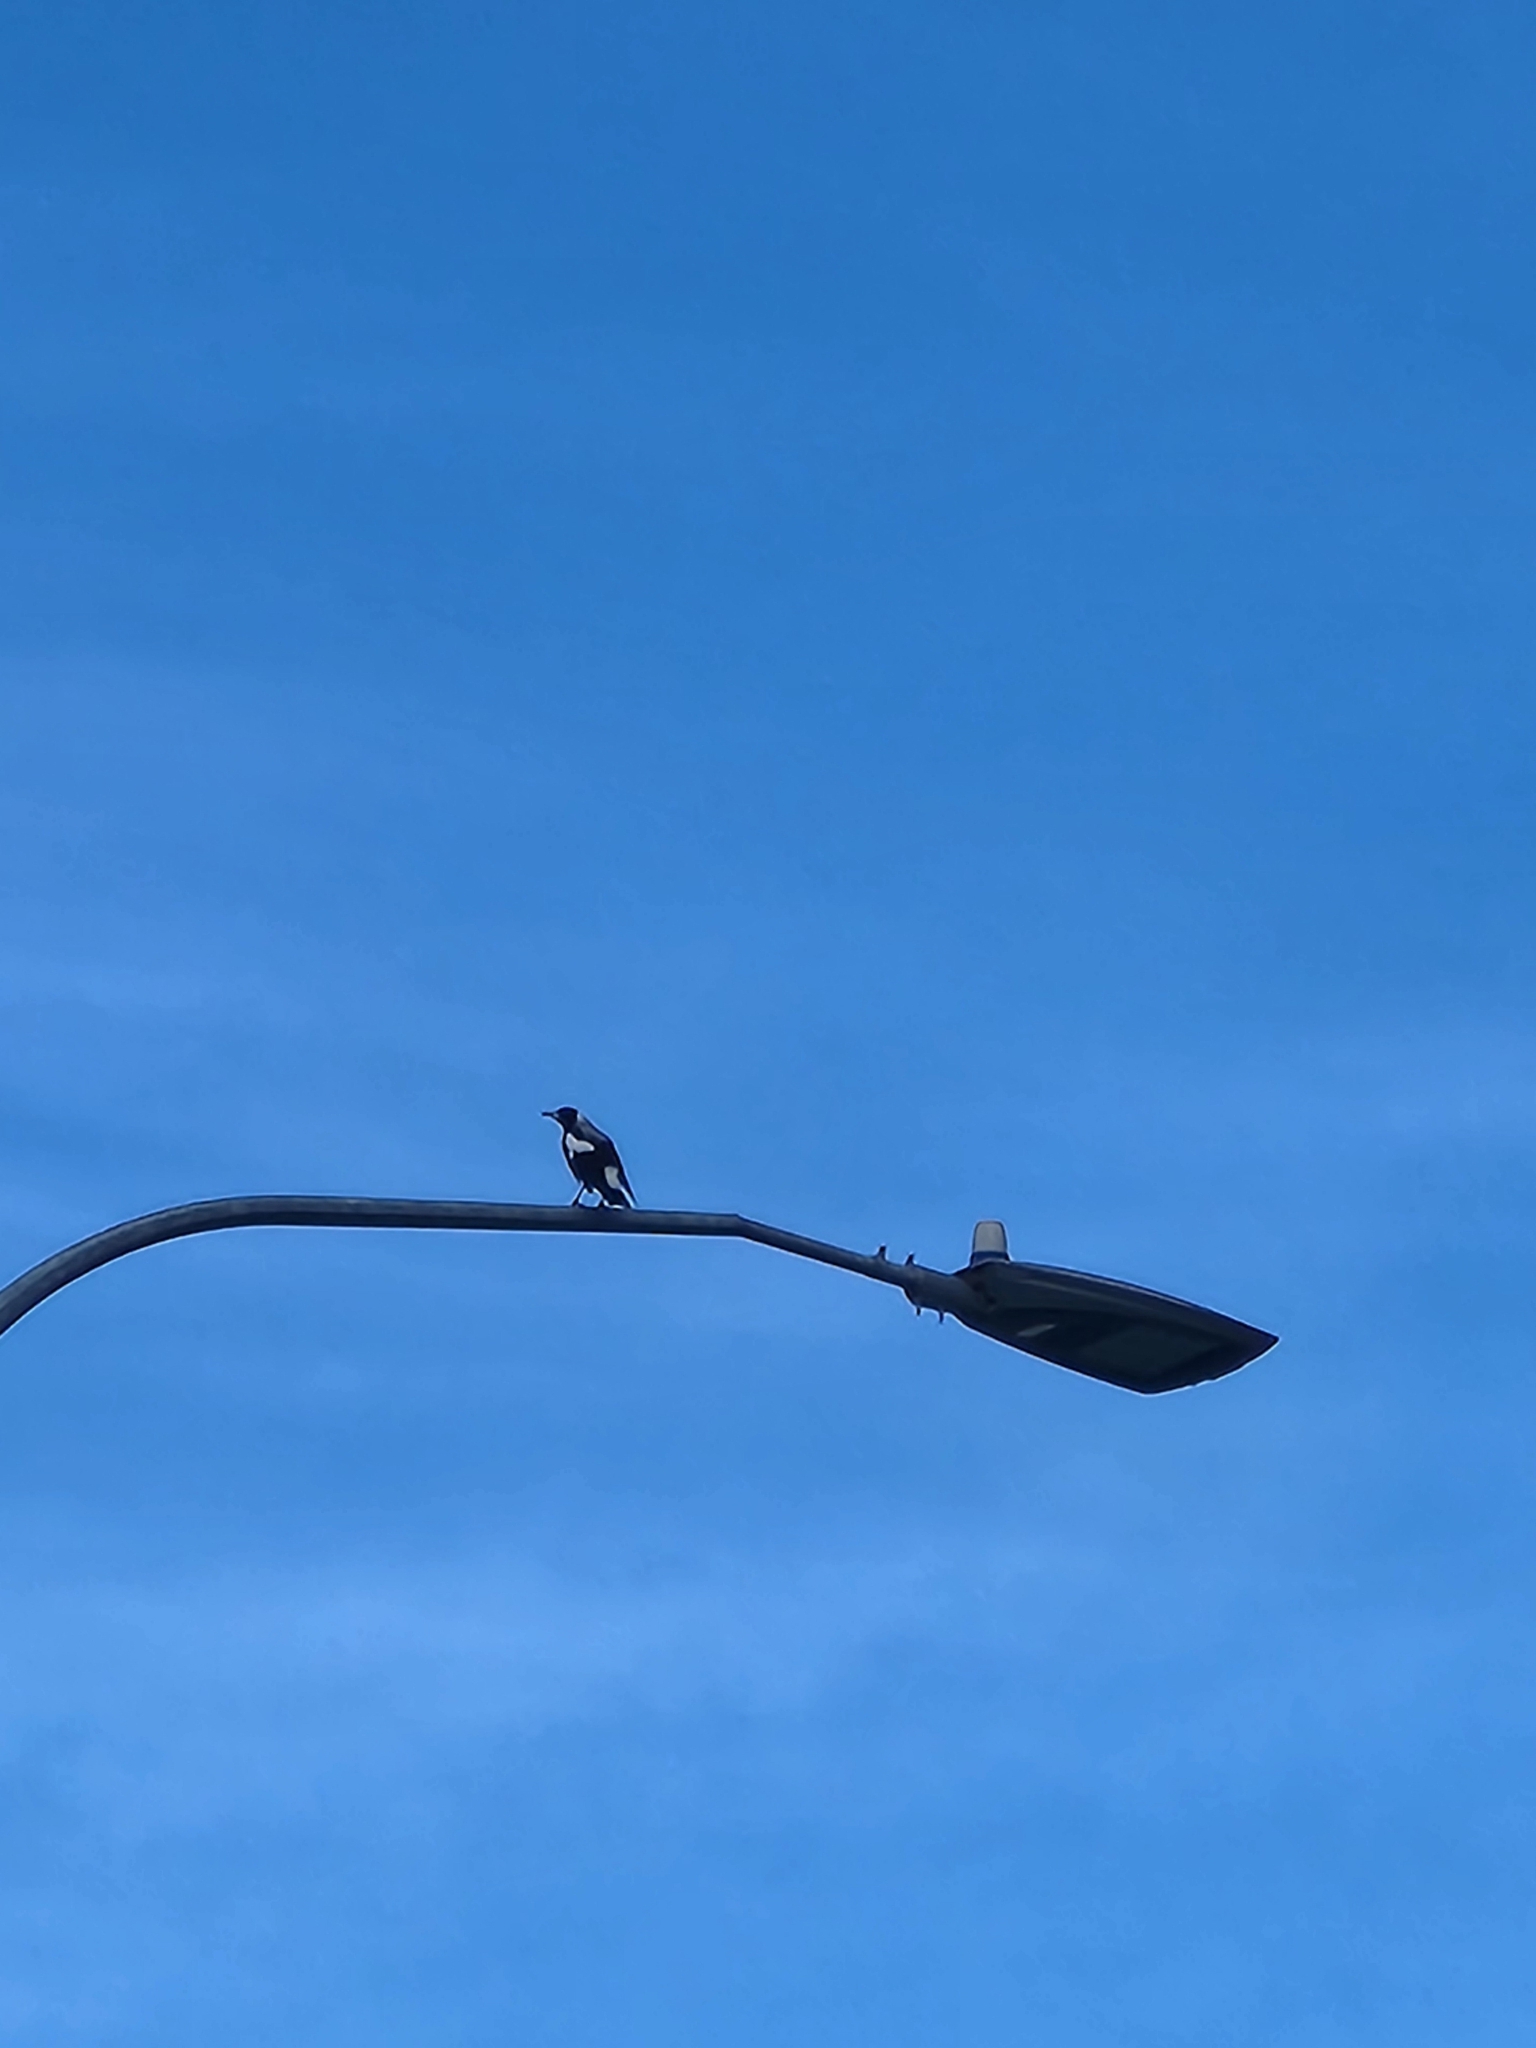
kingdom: Animalia
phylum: Chordata
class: Aves
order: Passeriformes
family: Cracticidae
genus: Gymnorhina
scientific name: Gymnorhina tibicen
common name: Australian magpie
